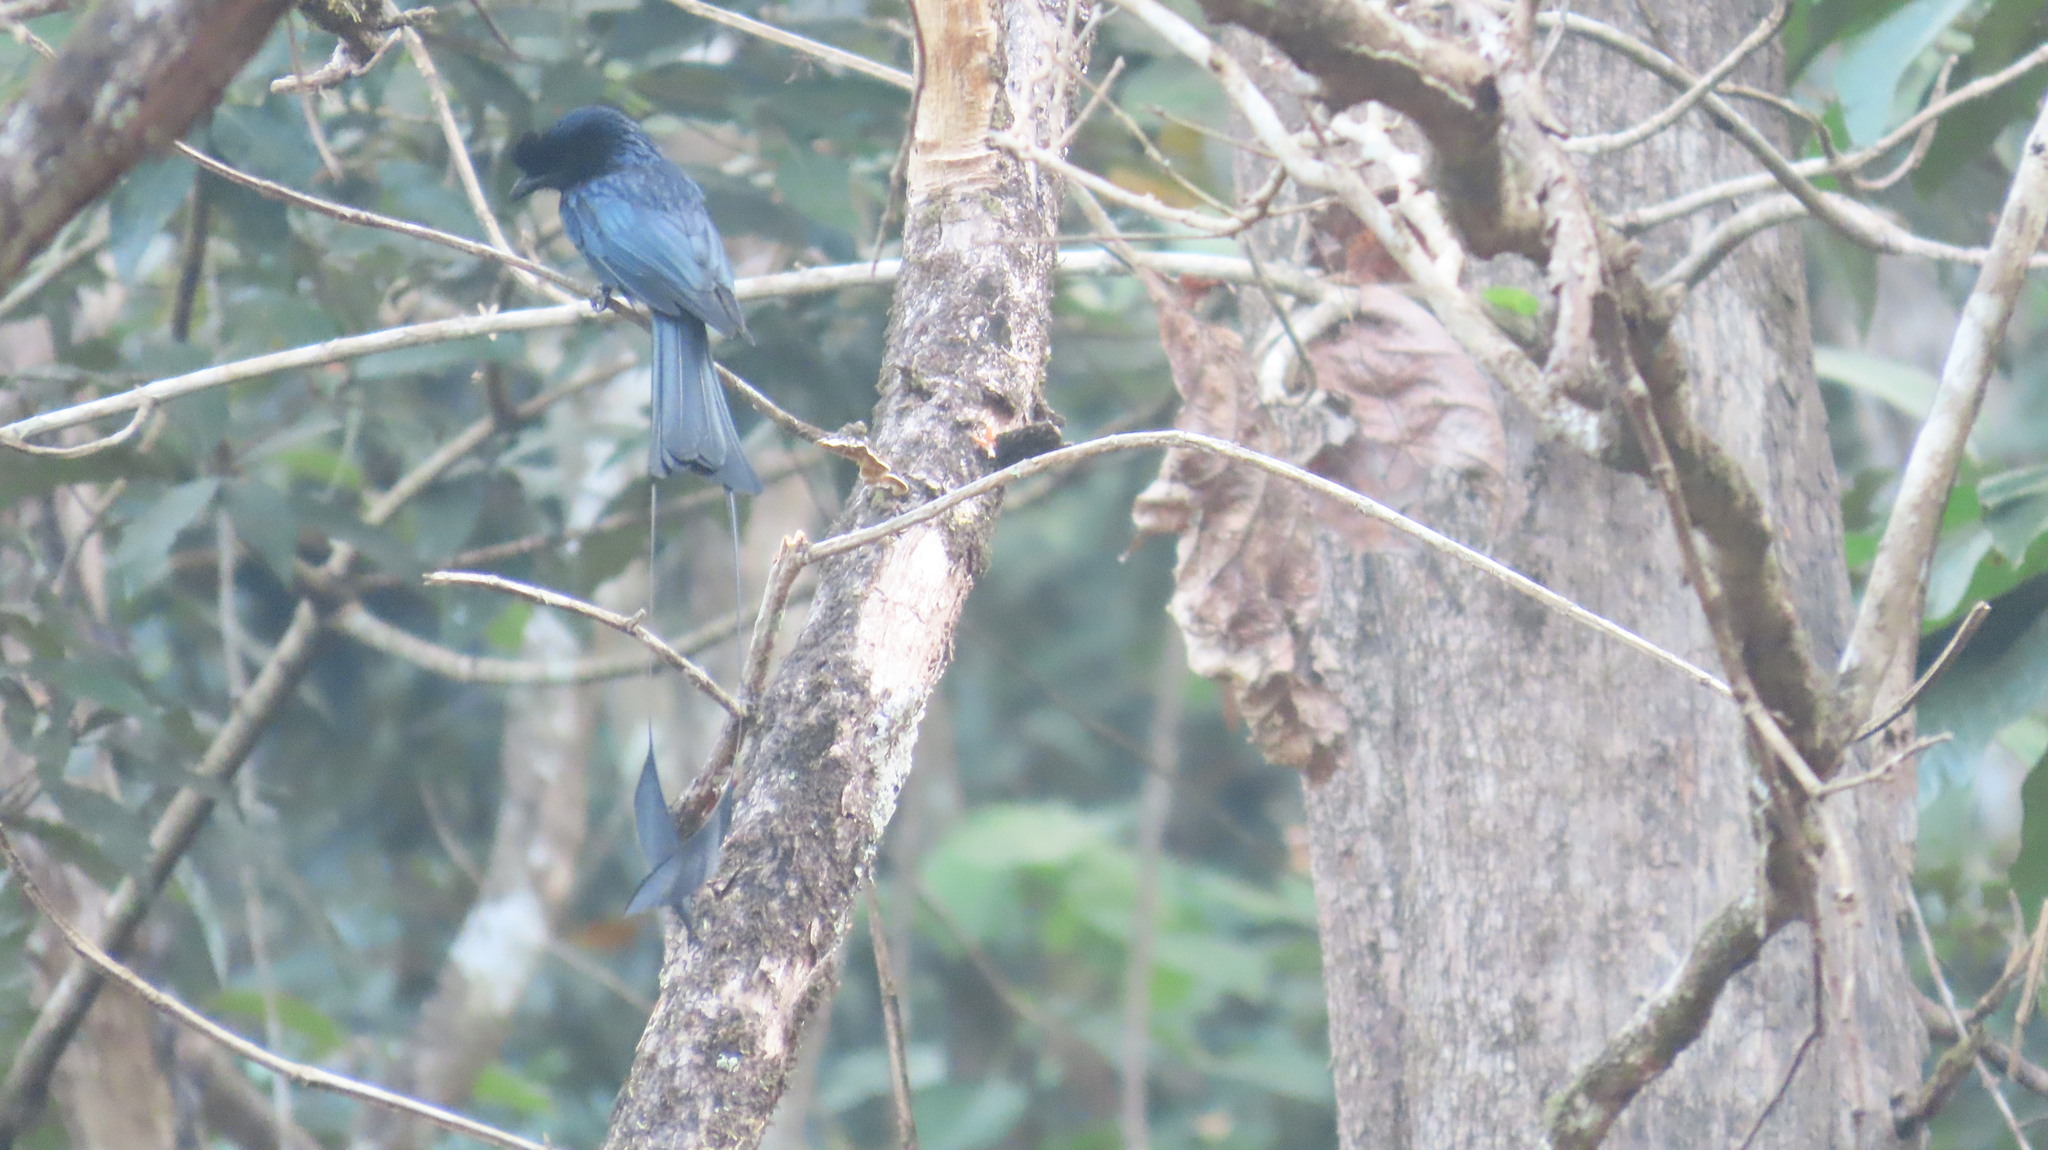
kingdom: Animalia
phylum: Chordata
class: Aves
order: Passeriformes
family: Dicruridae
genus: Dicrurus
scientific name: Dicrurus paradiseus
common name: Greater racket-tailed drongo
